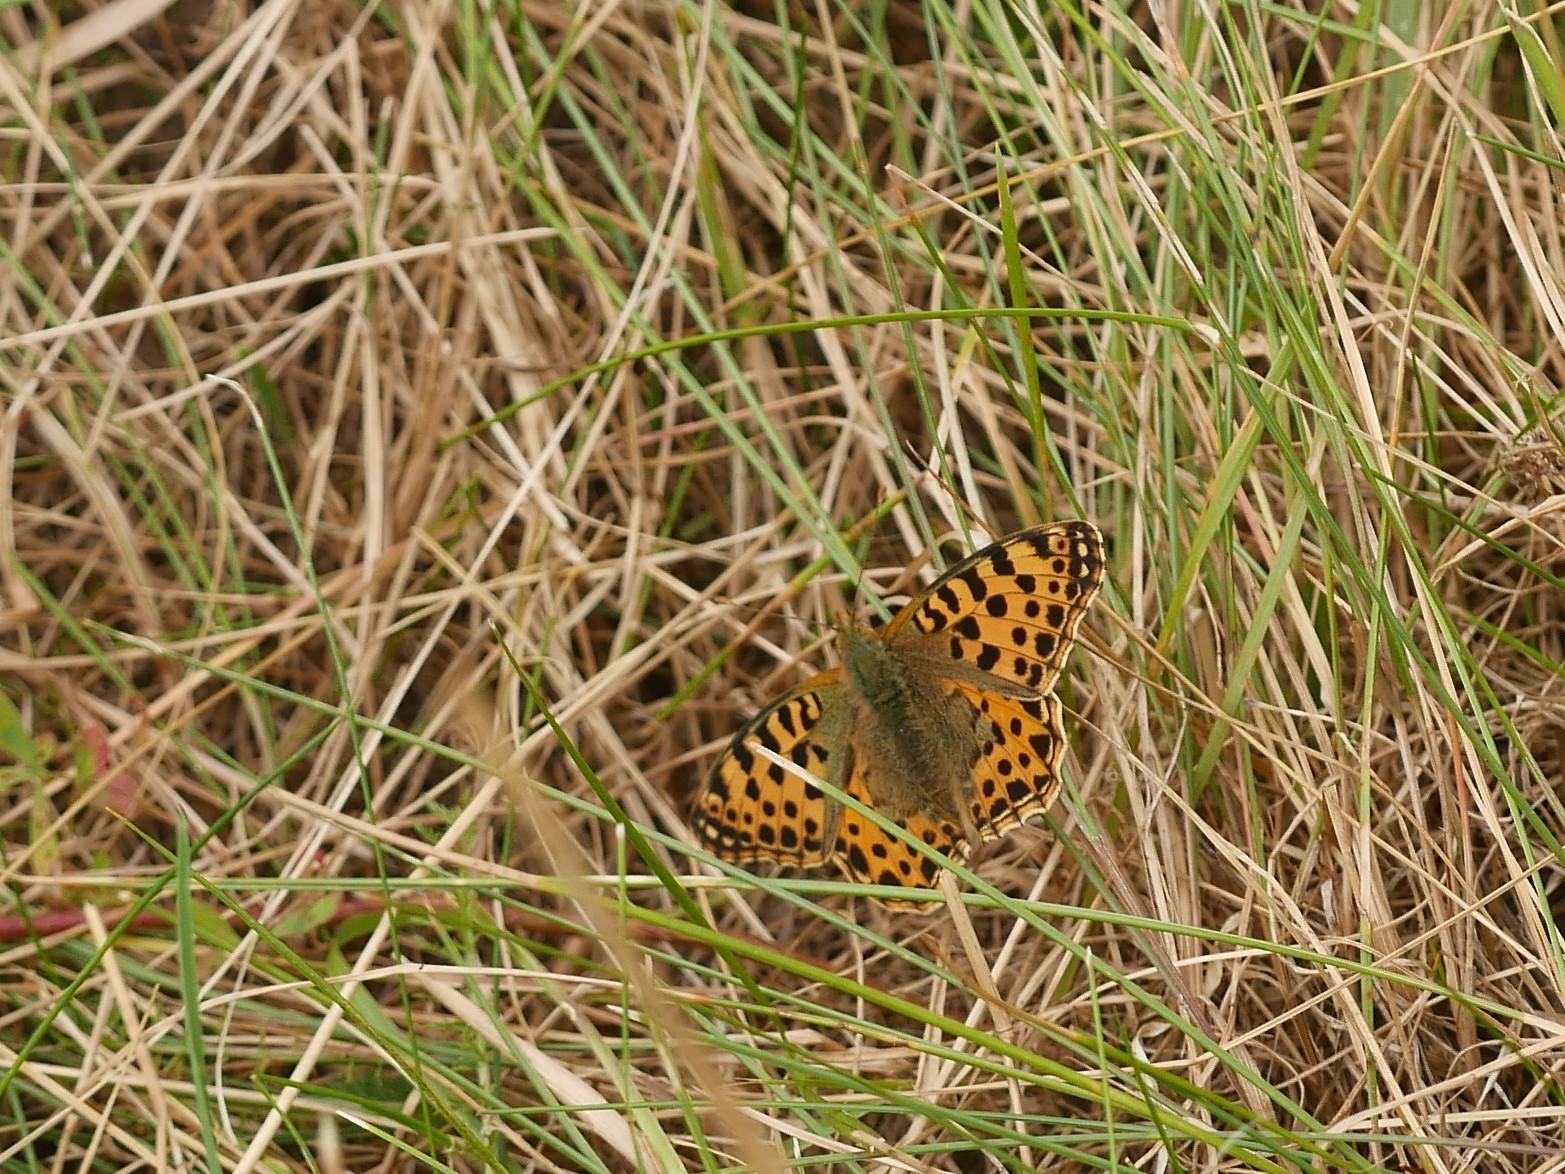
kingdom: Animalia
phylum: Arthropoda
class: Insecta
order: Lepidoptera
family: Nymphalidae
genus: Issoria
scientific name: Issoria lathonia
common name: Queen of spain fritillary
